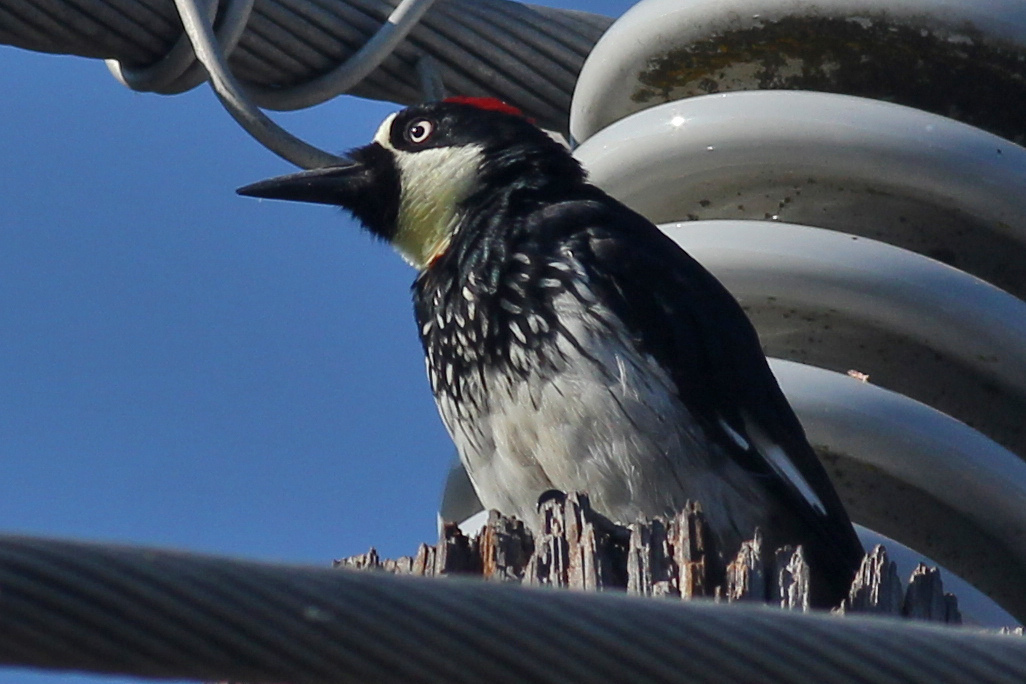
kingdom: Animalia
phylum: Chordata
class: Aves
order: Piciformes
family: Picidae
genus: Melanerpes
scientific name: Melanerpes formicivorus
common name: Acorn woodpecker
